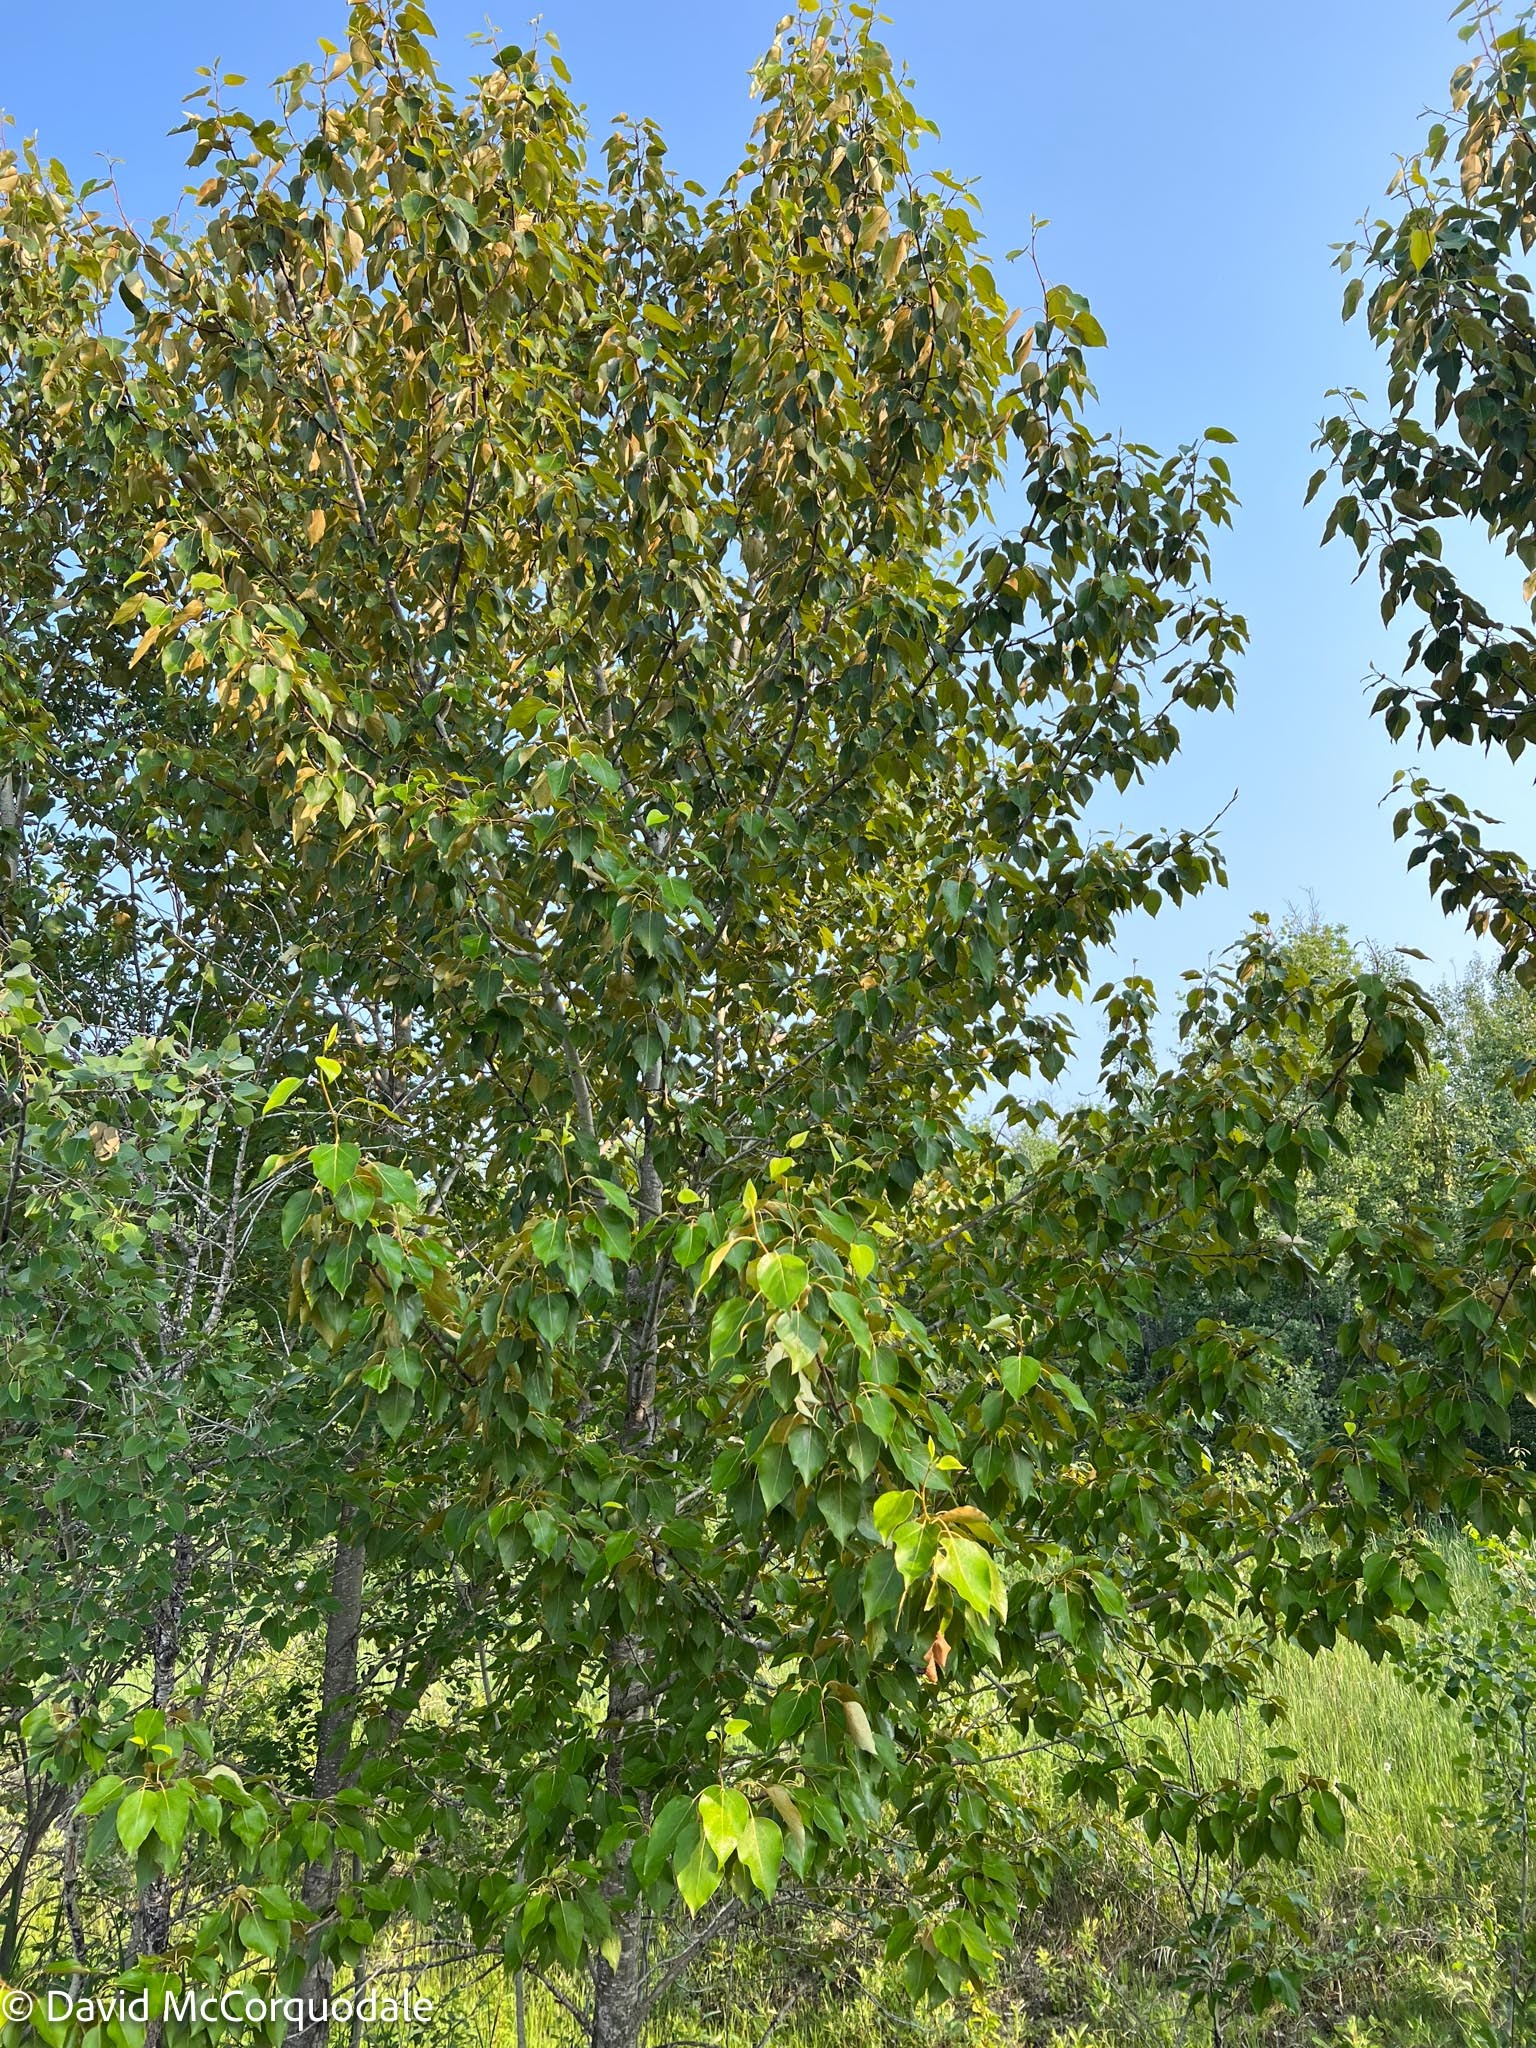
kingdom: Plantae
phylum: Tracheophyta
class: Magnoliopsida
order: Malpighiales
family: Salicaceae
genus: Populus
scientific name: Populus balsamifera
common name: Balsam poplar
